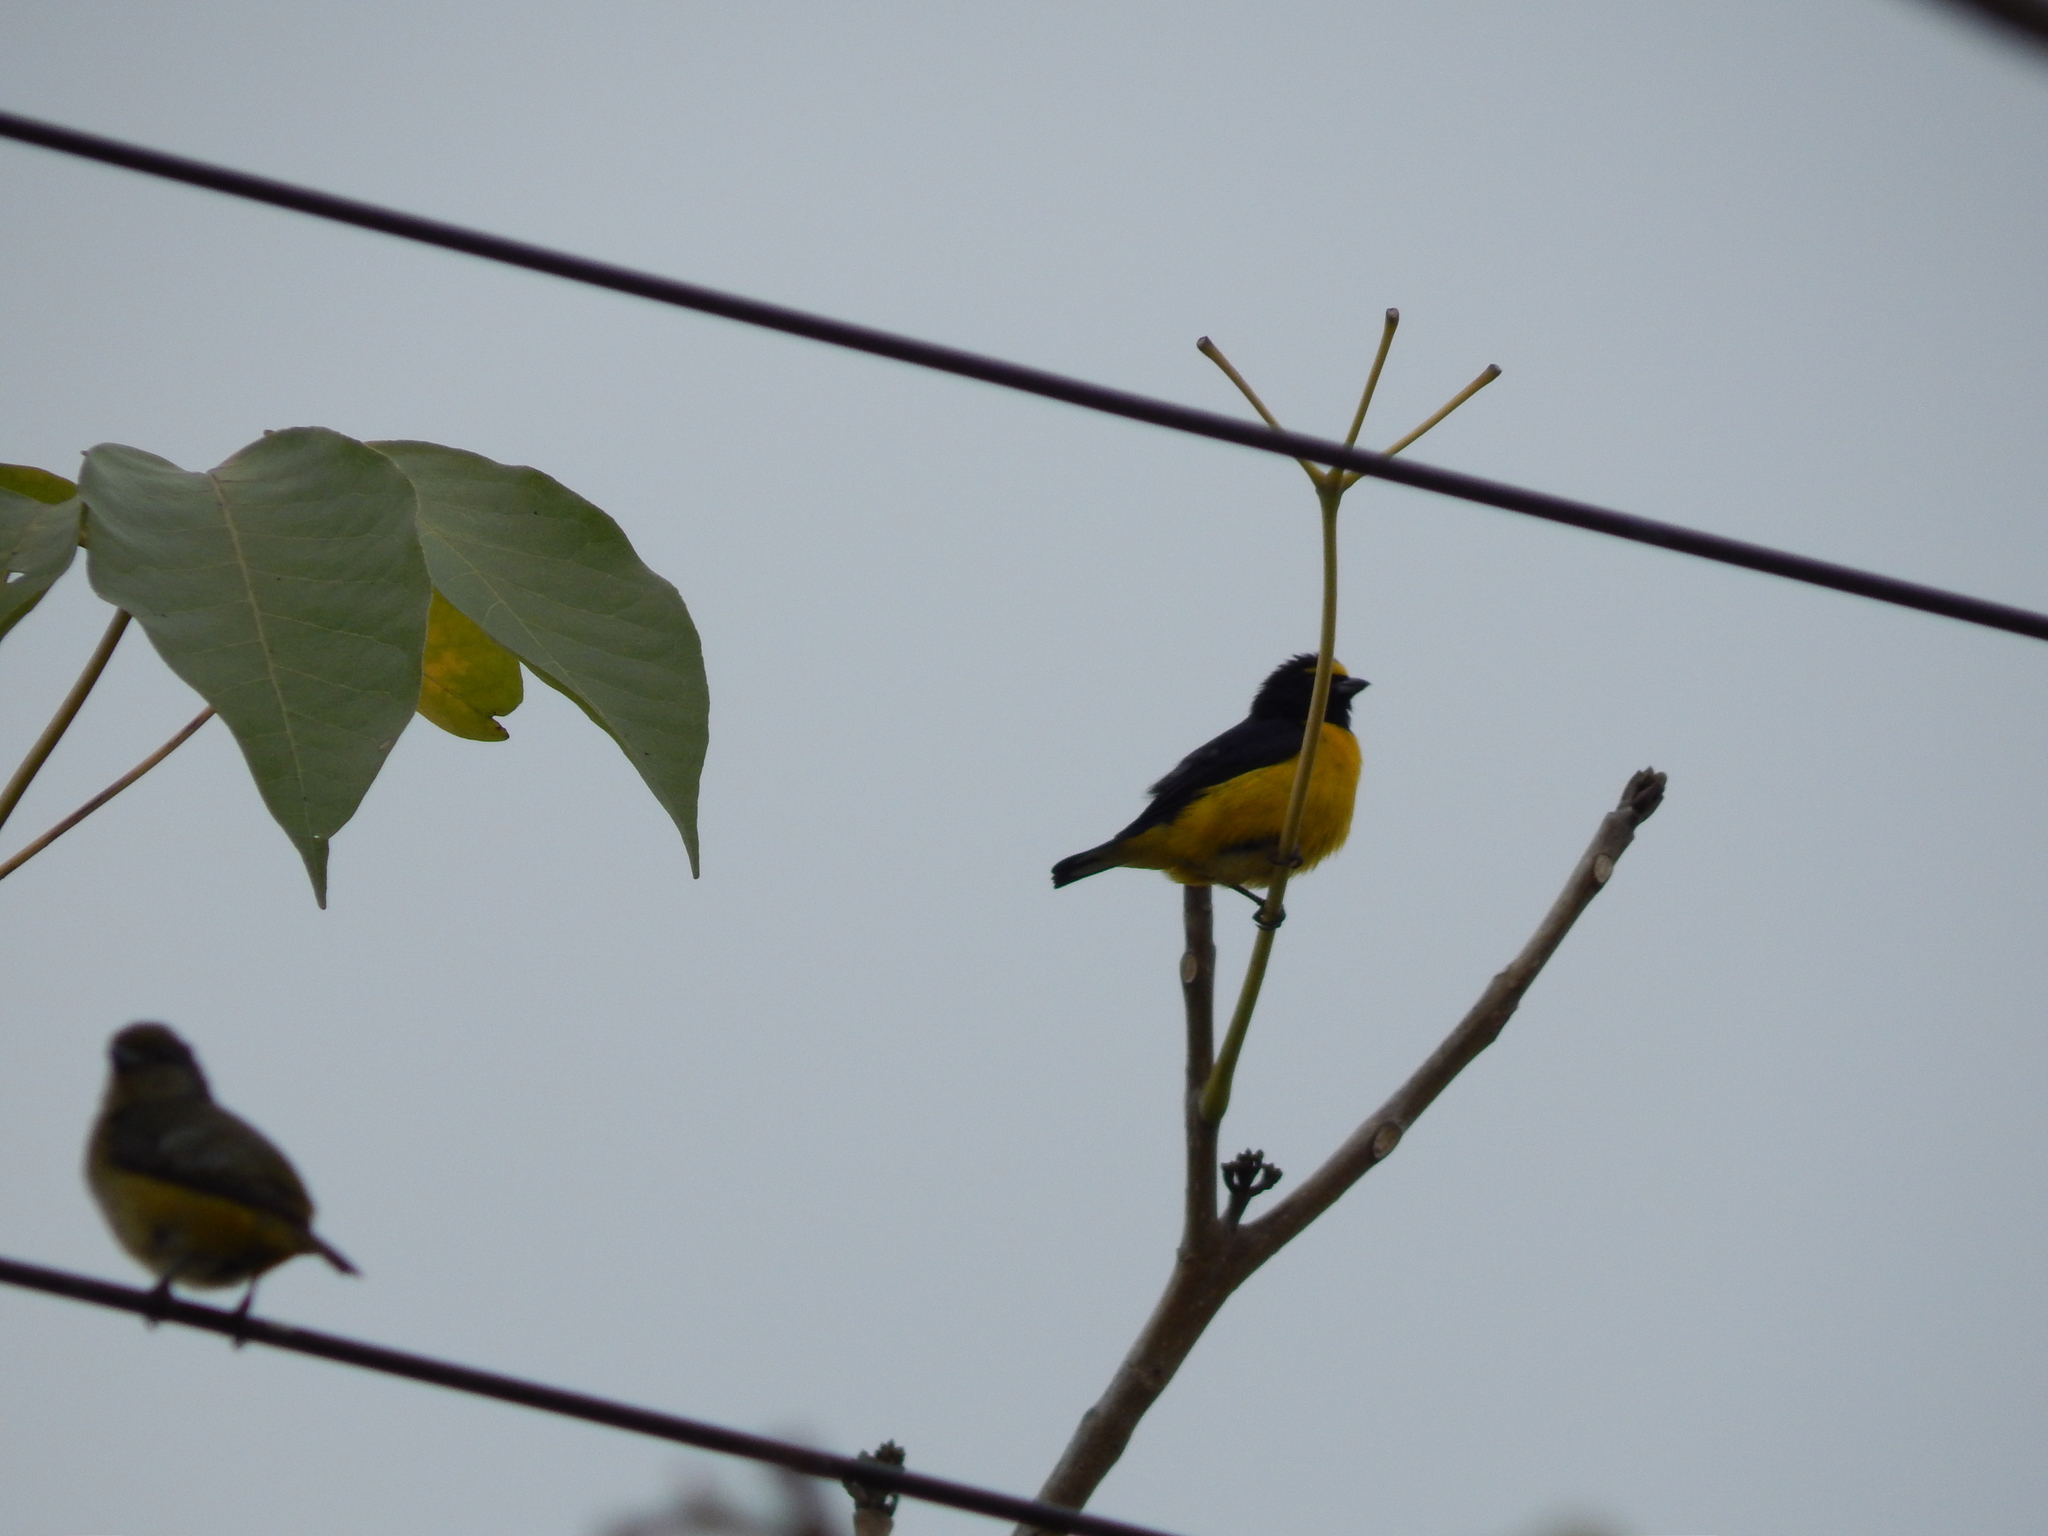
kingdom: Animalia
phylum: Chordata
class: Aves
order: Passeriformes
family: Fringillidae
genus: Euphonia
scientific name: Euphonia affinis
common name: Scrub euphonia
